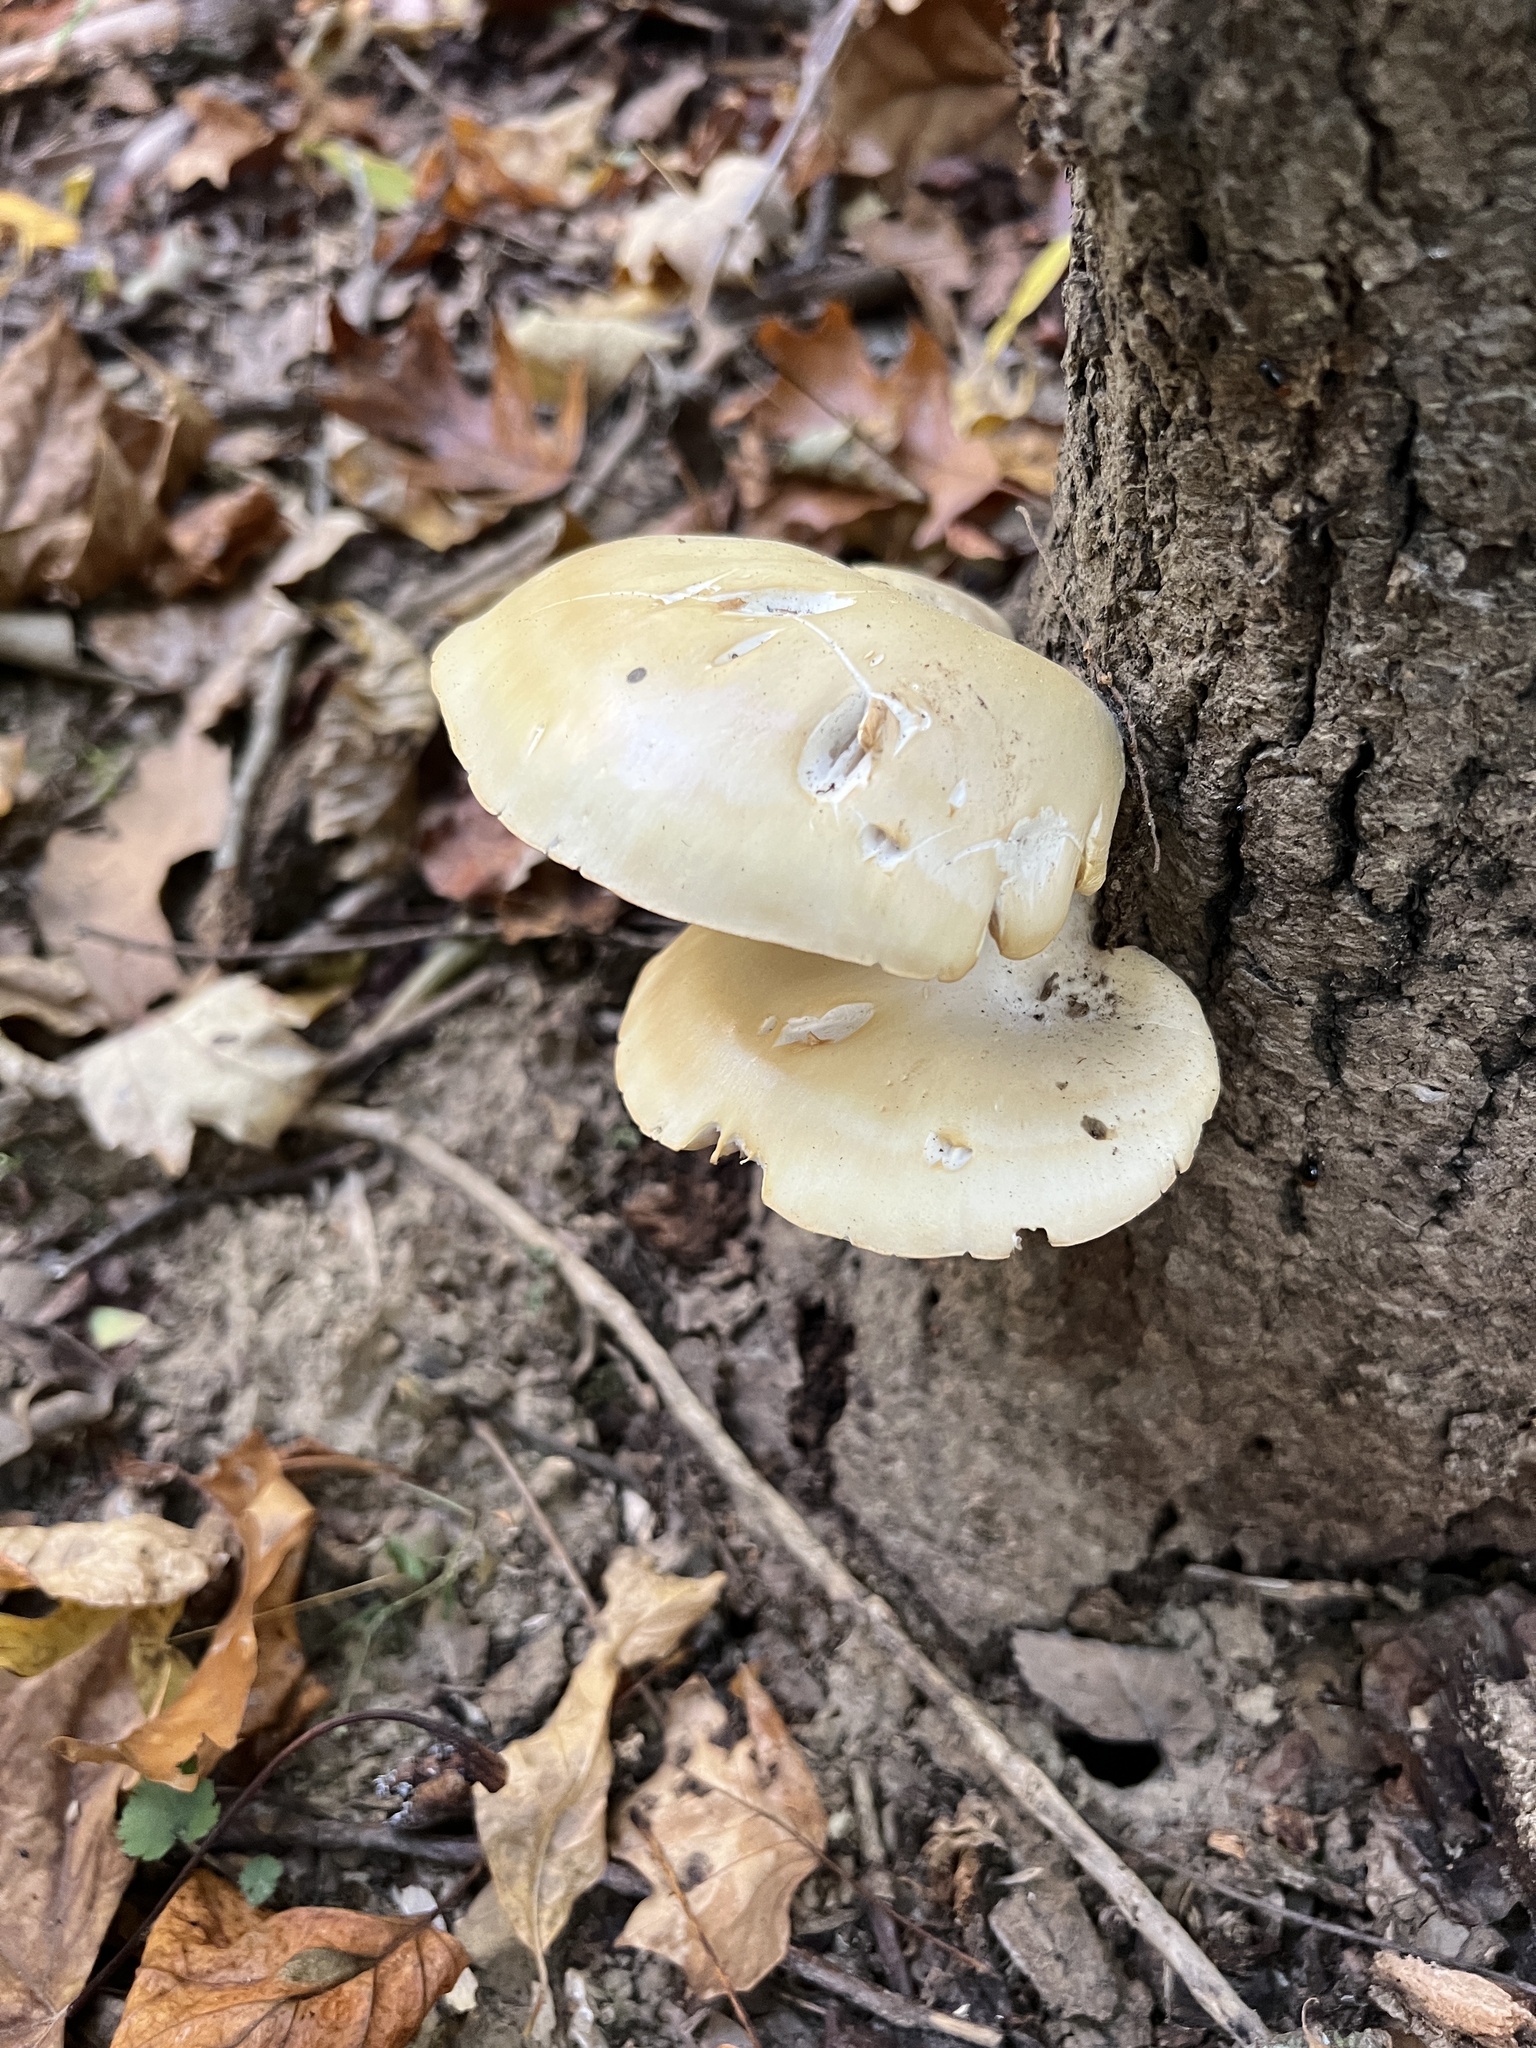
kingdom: Fungi
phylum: Basidiomycota
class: Agaricomycetes
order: Agaricales
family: Pleurotaceae
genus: Pleurotus
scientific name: Pleurotus pulmonarius
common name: Pale oyster
